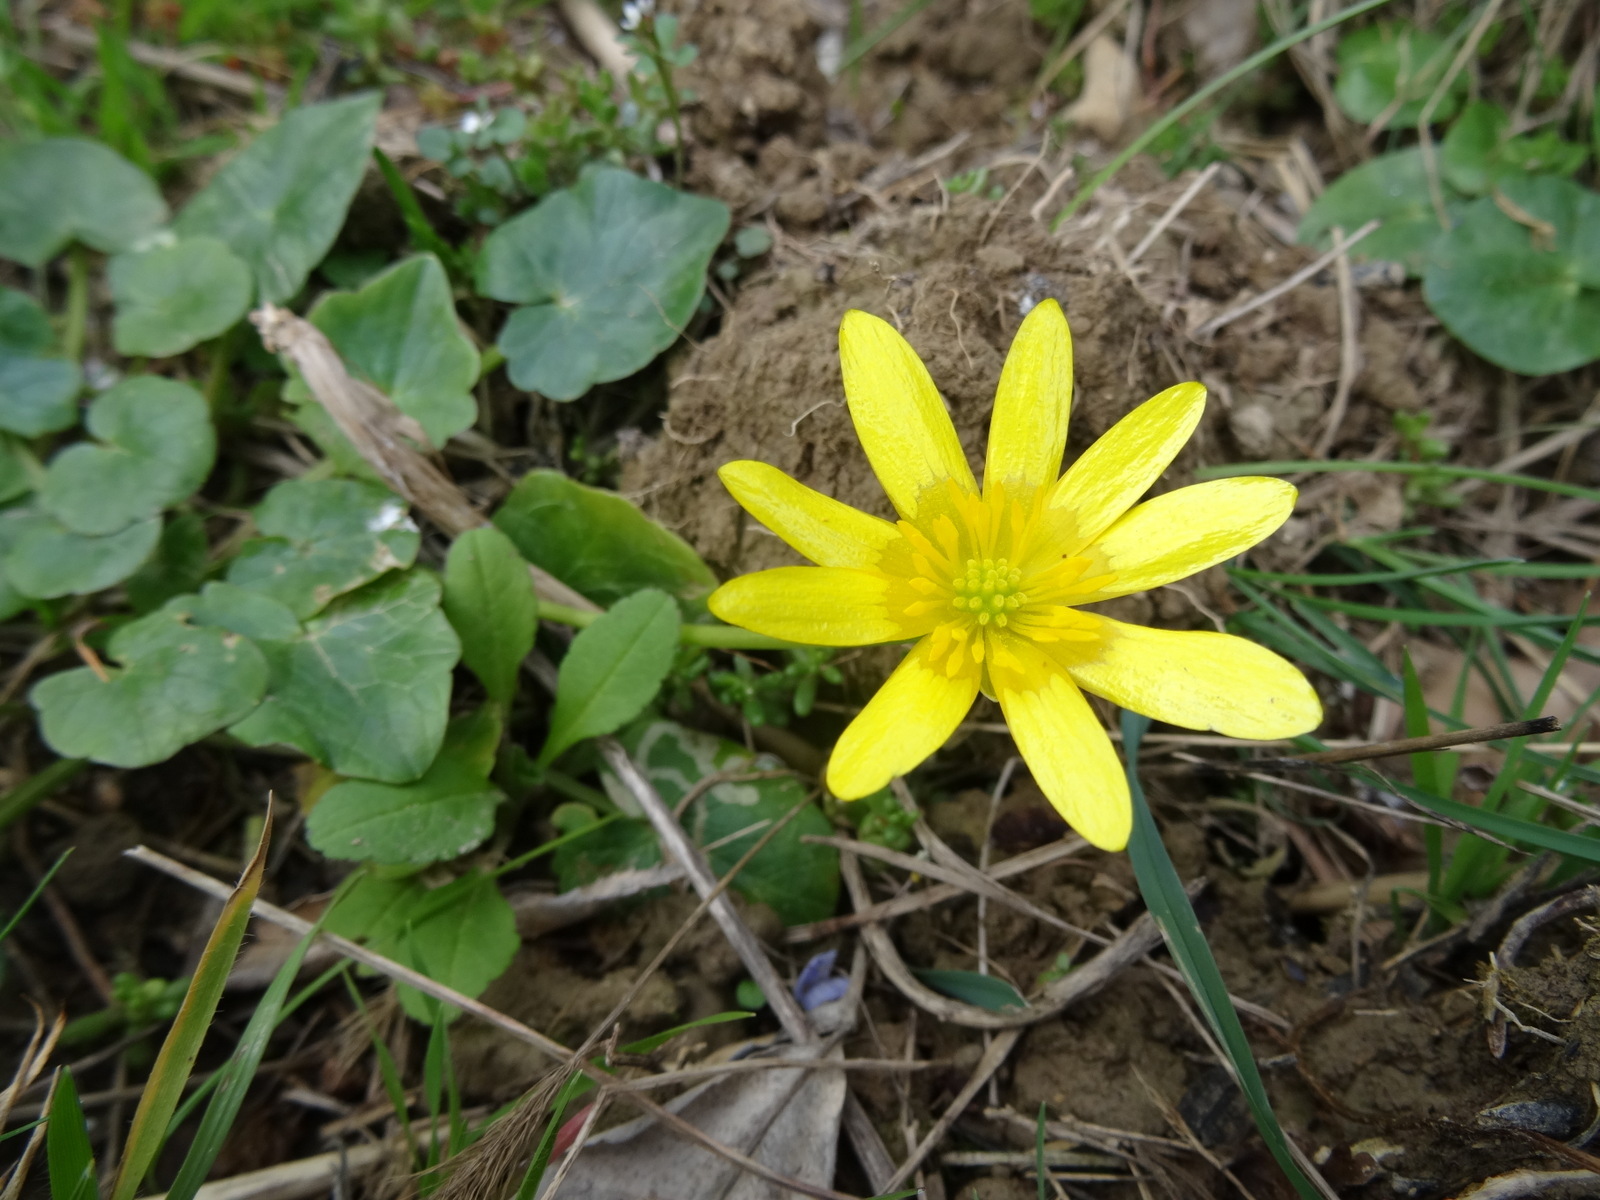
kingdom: Plantae
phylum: Tracheophyta
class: Magnoliopsida
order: Ranunculales
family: Ranunculaceae
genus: Ficaria
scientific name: Ficaria verna
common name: Lesser celandine
